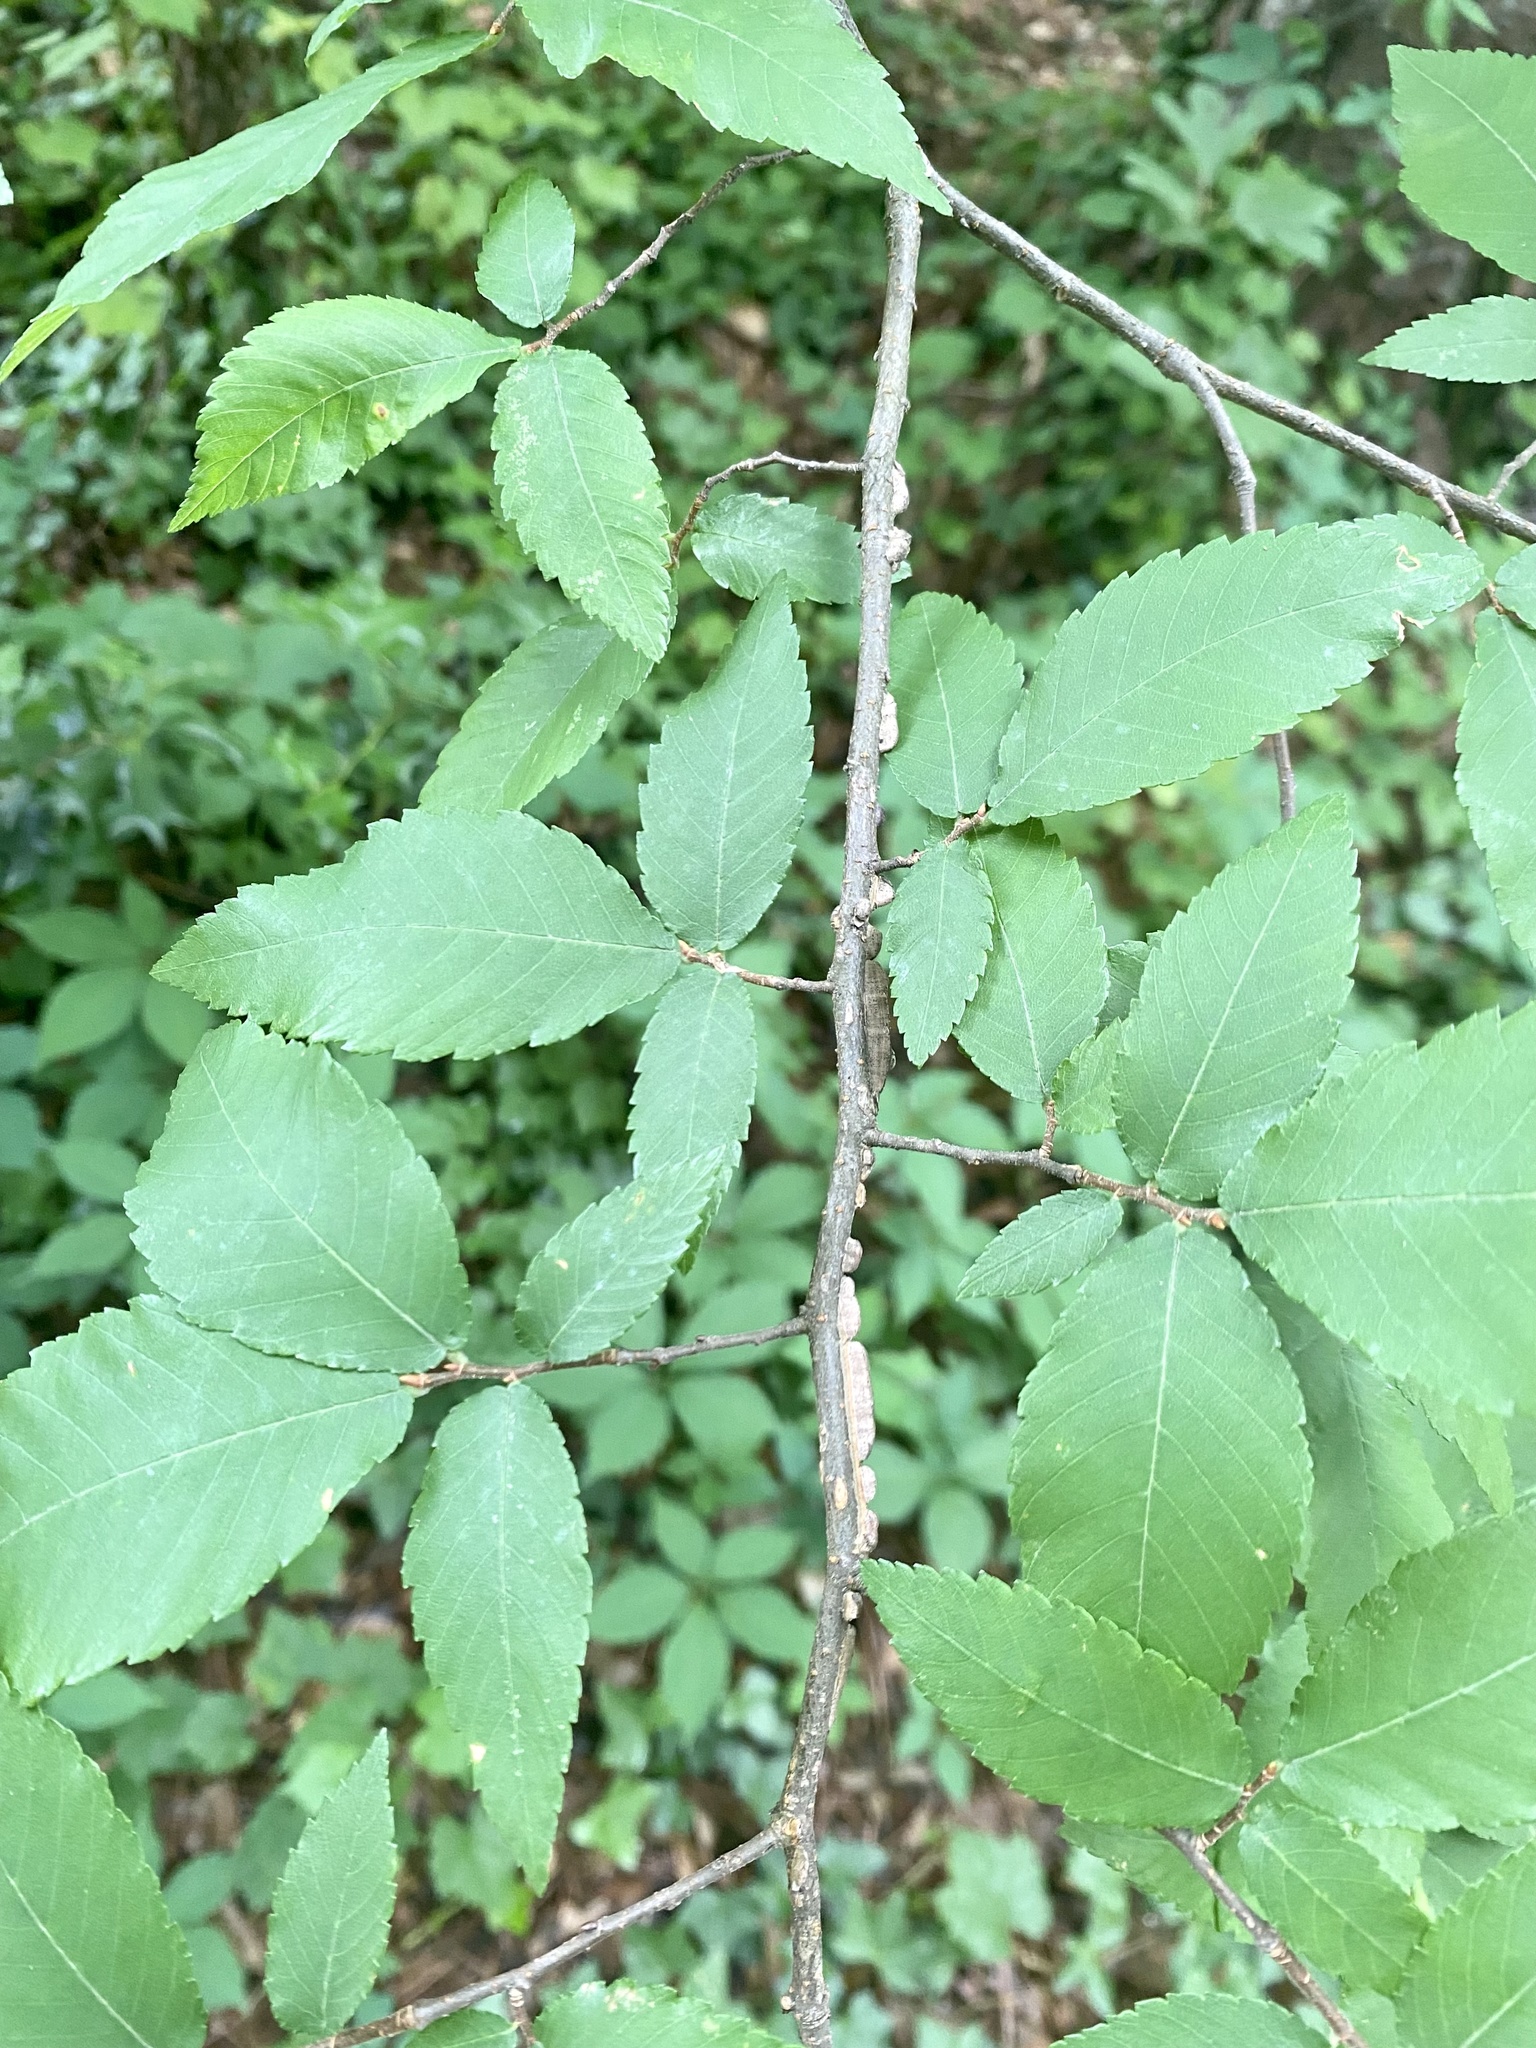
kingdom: Plantae
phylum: Tracheophyta
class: Magnoliopsida
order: Rosales
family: Ulmaceae
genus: Ulmus
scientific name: Ulmus alata
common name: Winged elm
